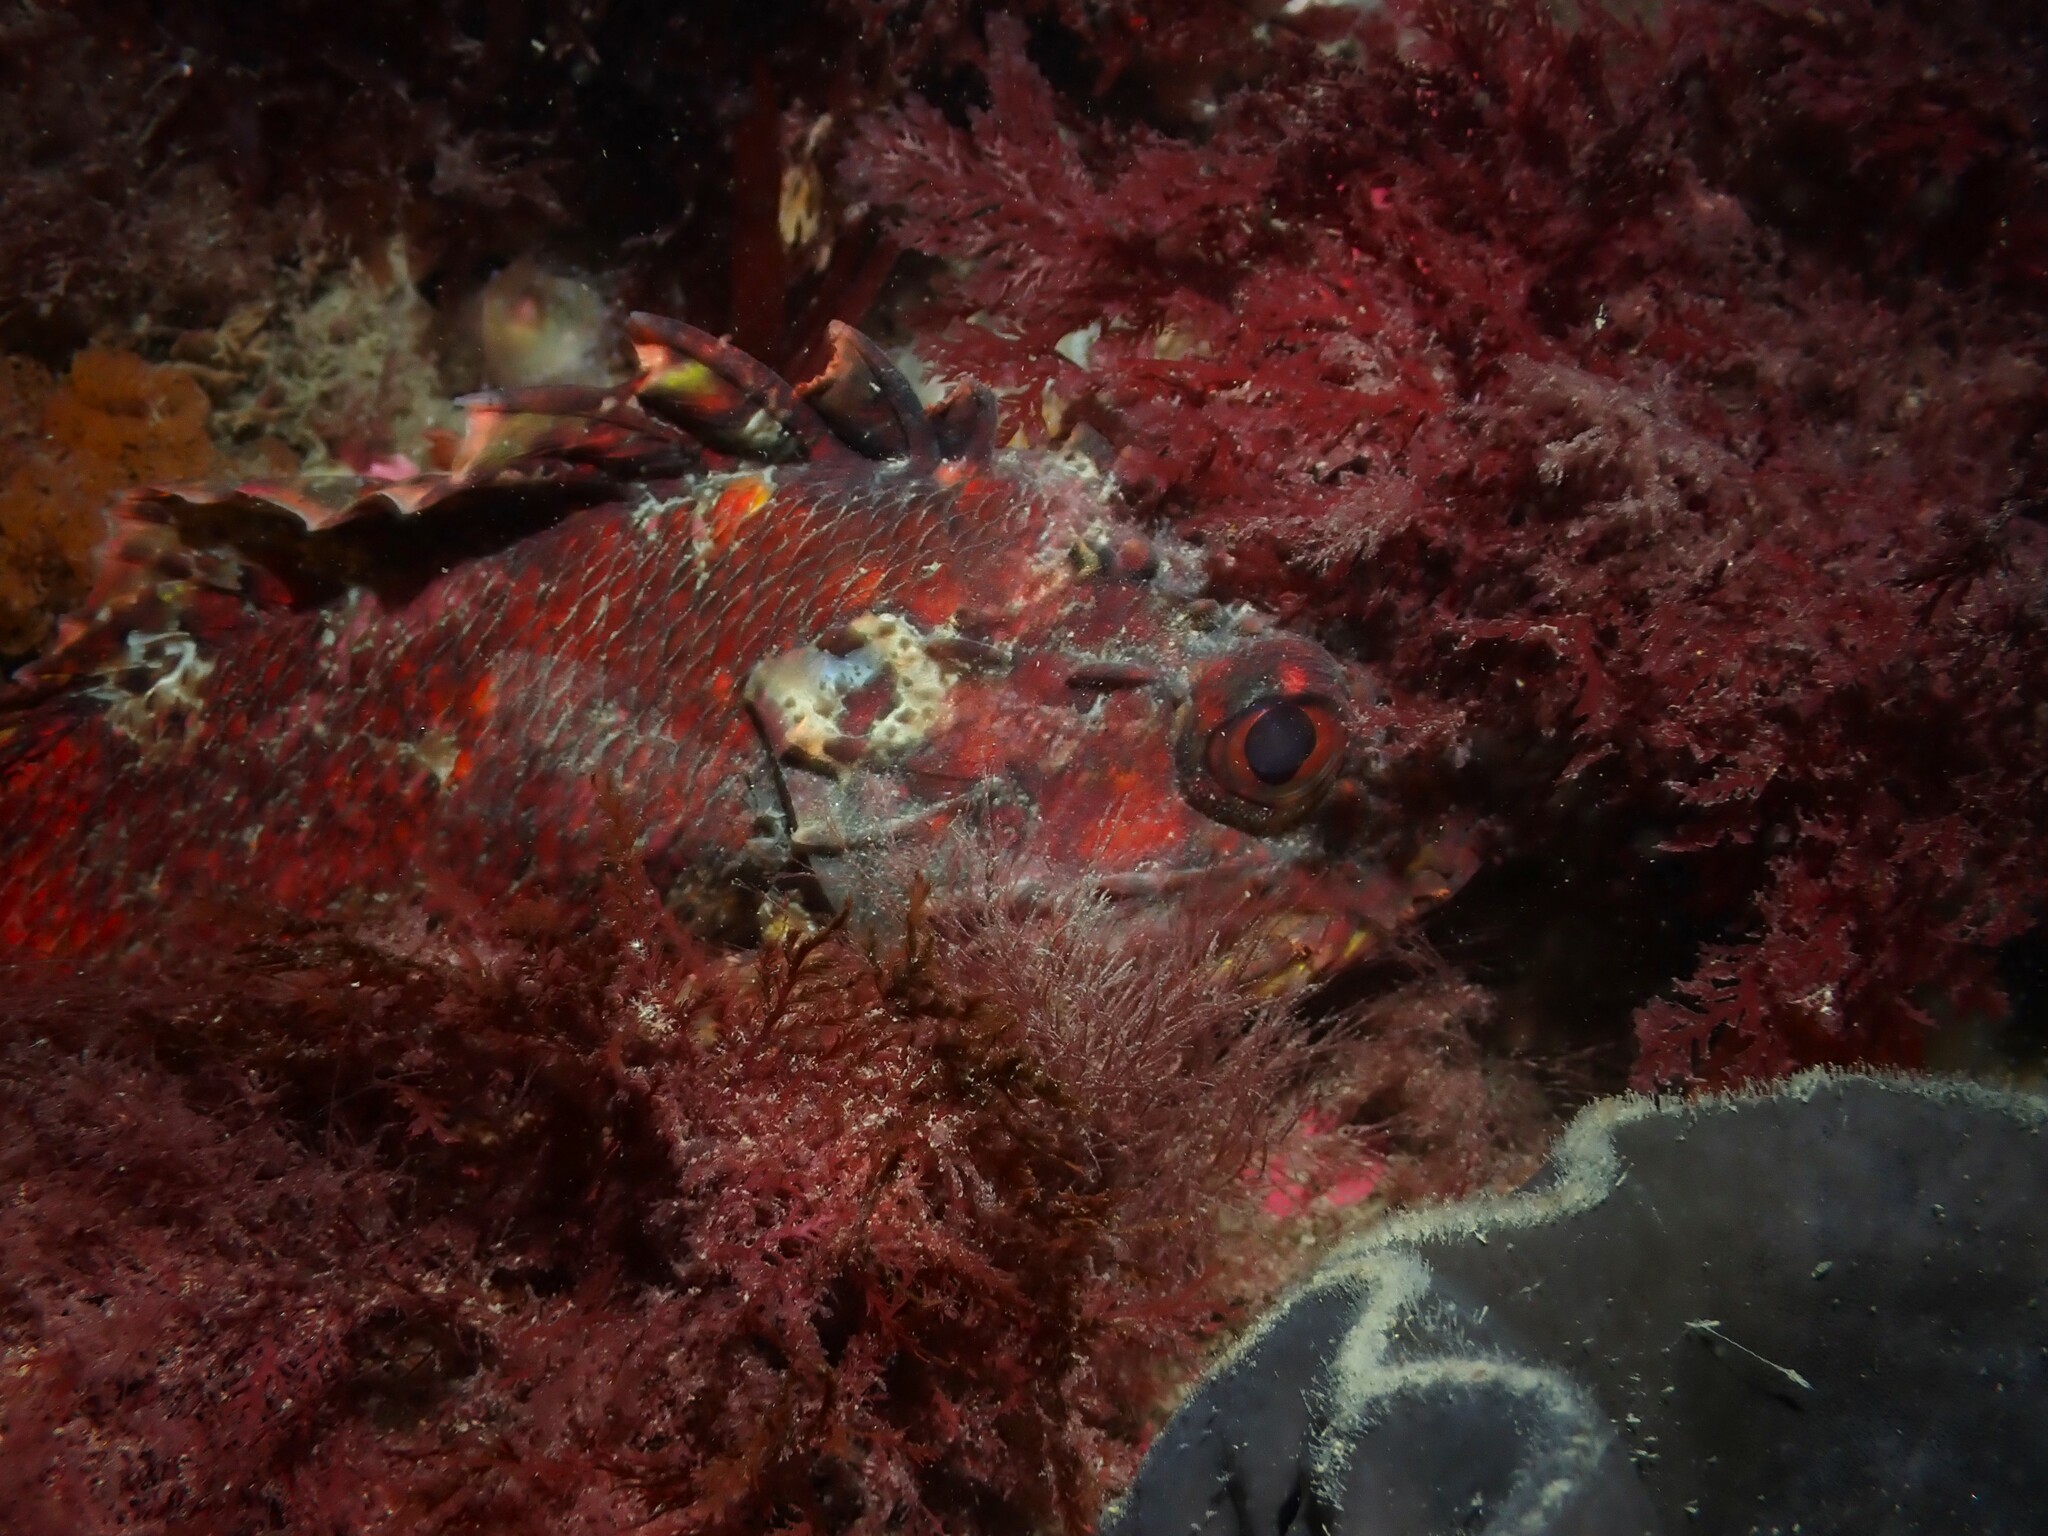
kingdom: Animalia
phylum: Chordata
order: Scorpaeniformes
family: Scorpaenidae
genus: Scorpaena
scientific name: Scorpaena papillosa
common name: Chained scorpionfish
